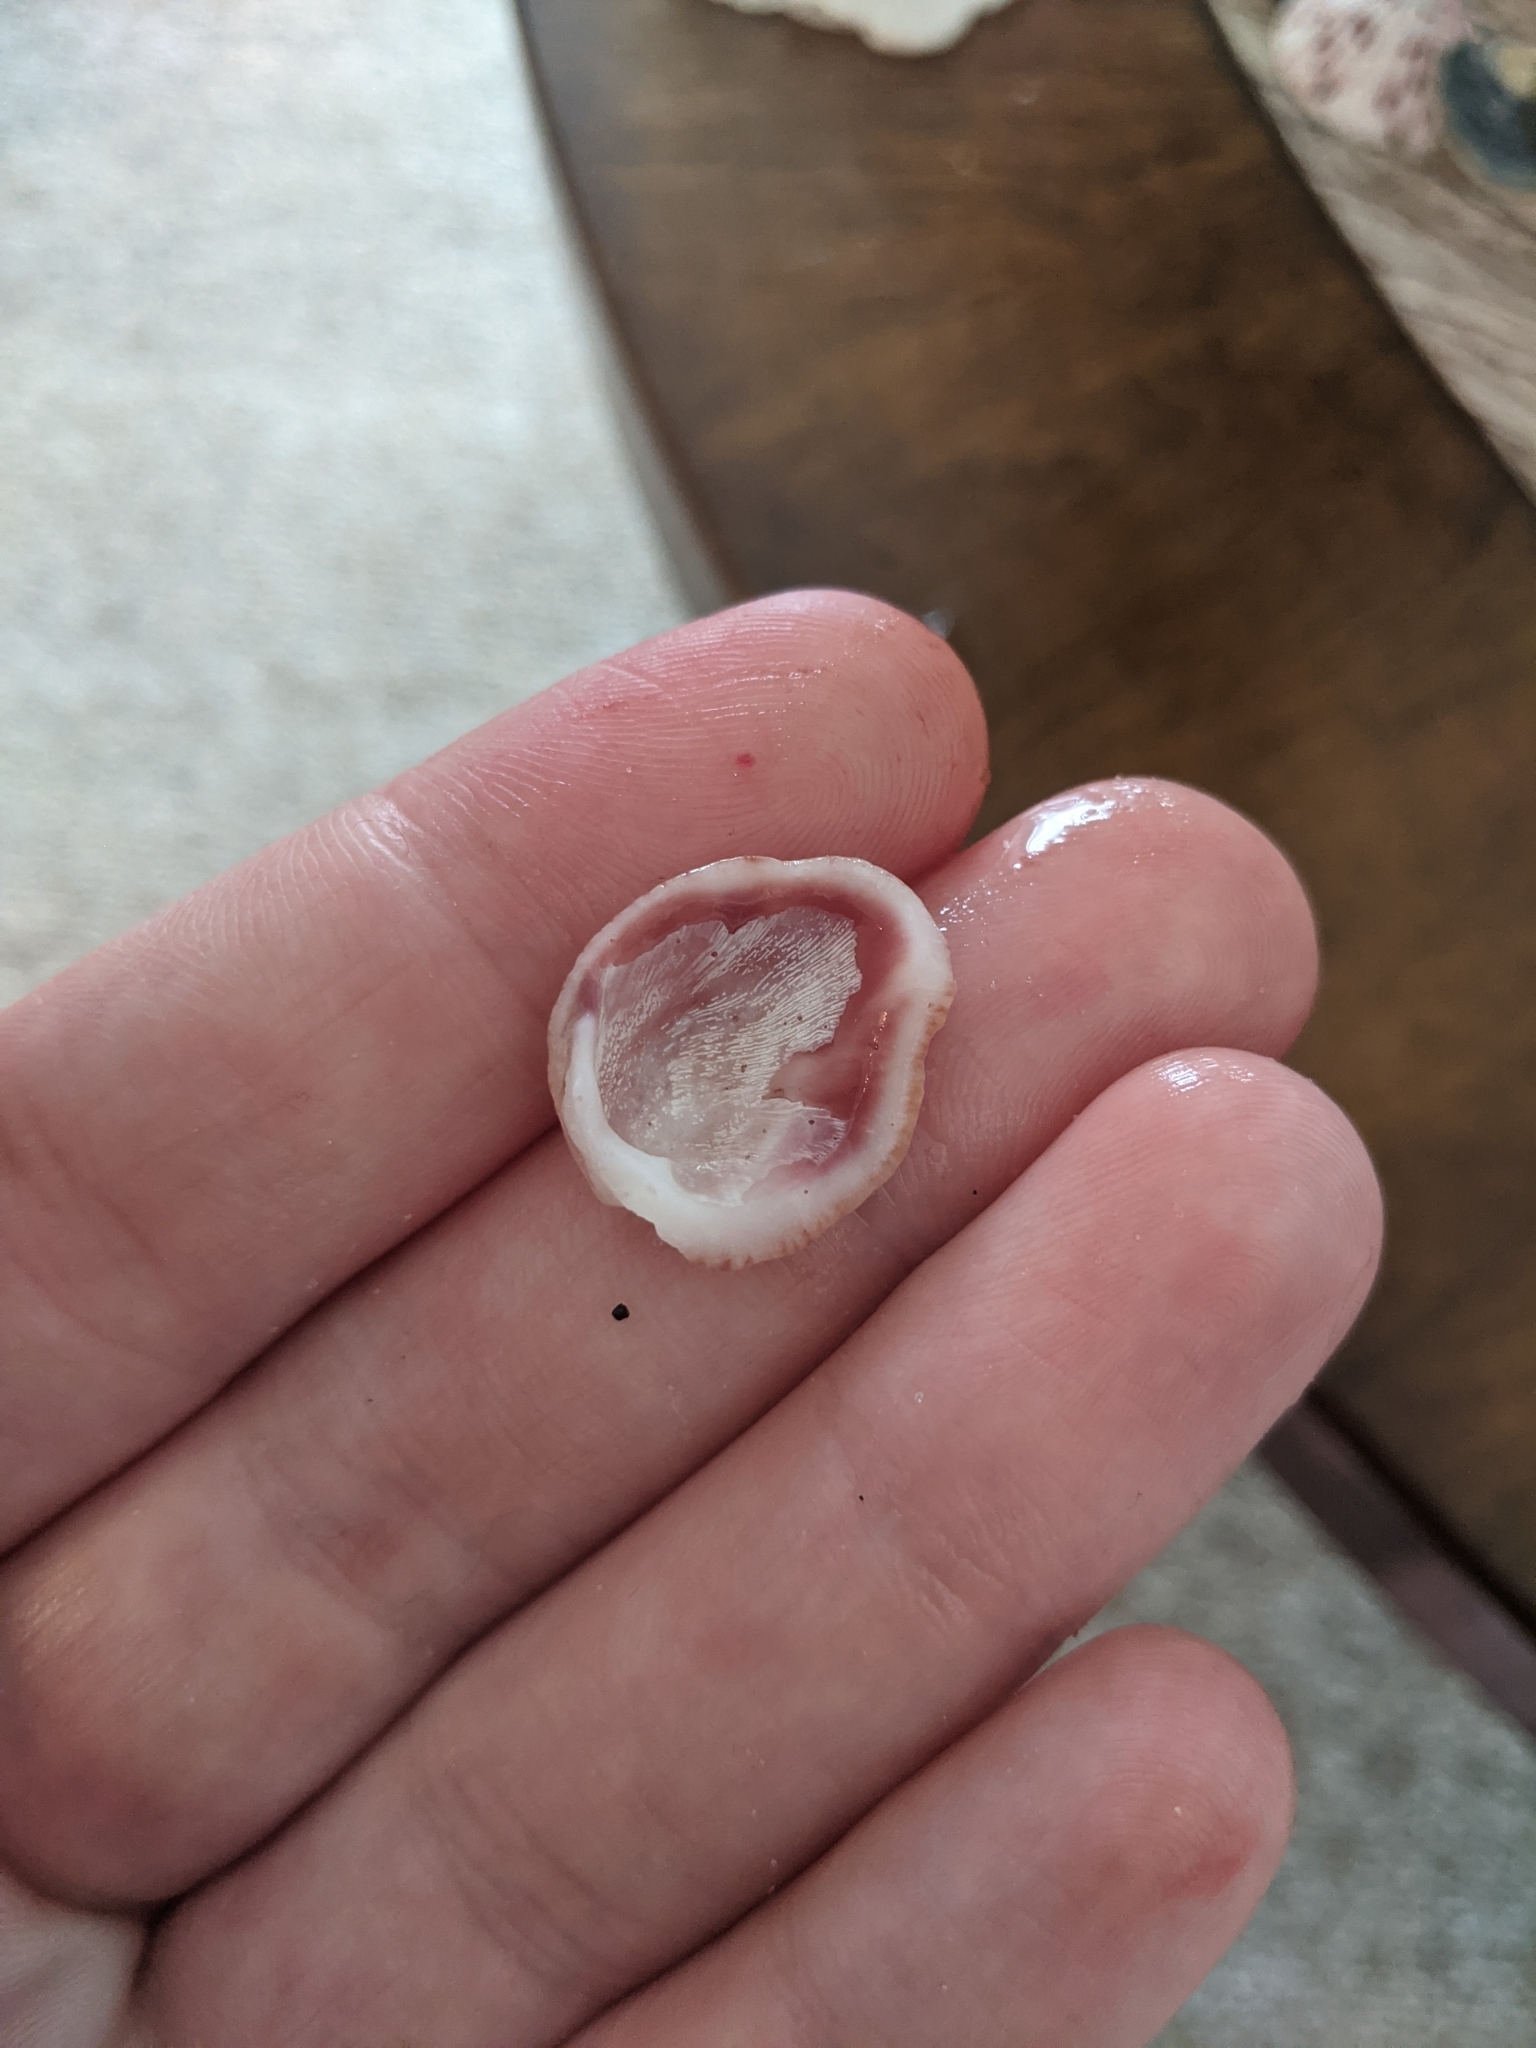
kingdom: Animalia
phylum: Mollusca
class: Bivalvia
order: Venerida
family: Chamidae
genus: Chama
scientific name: Chama congregata
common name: Corrugate jewelbox
